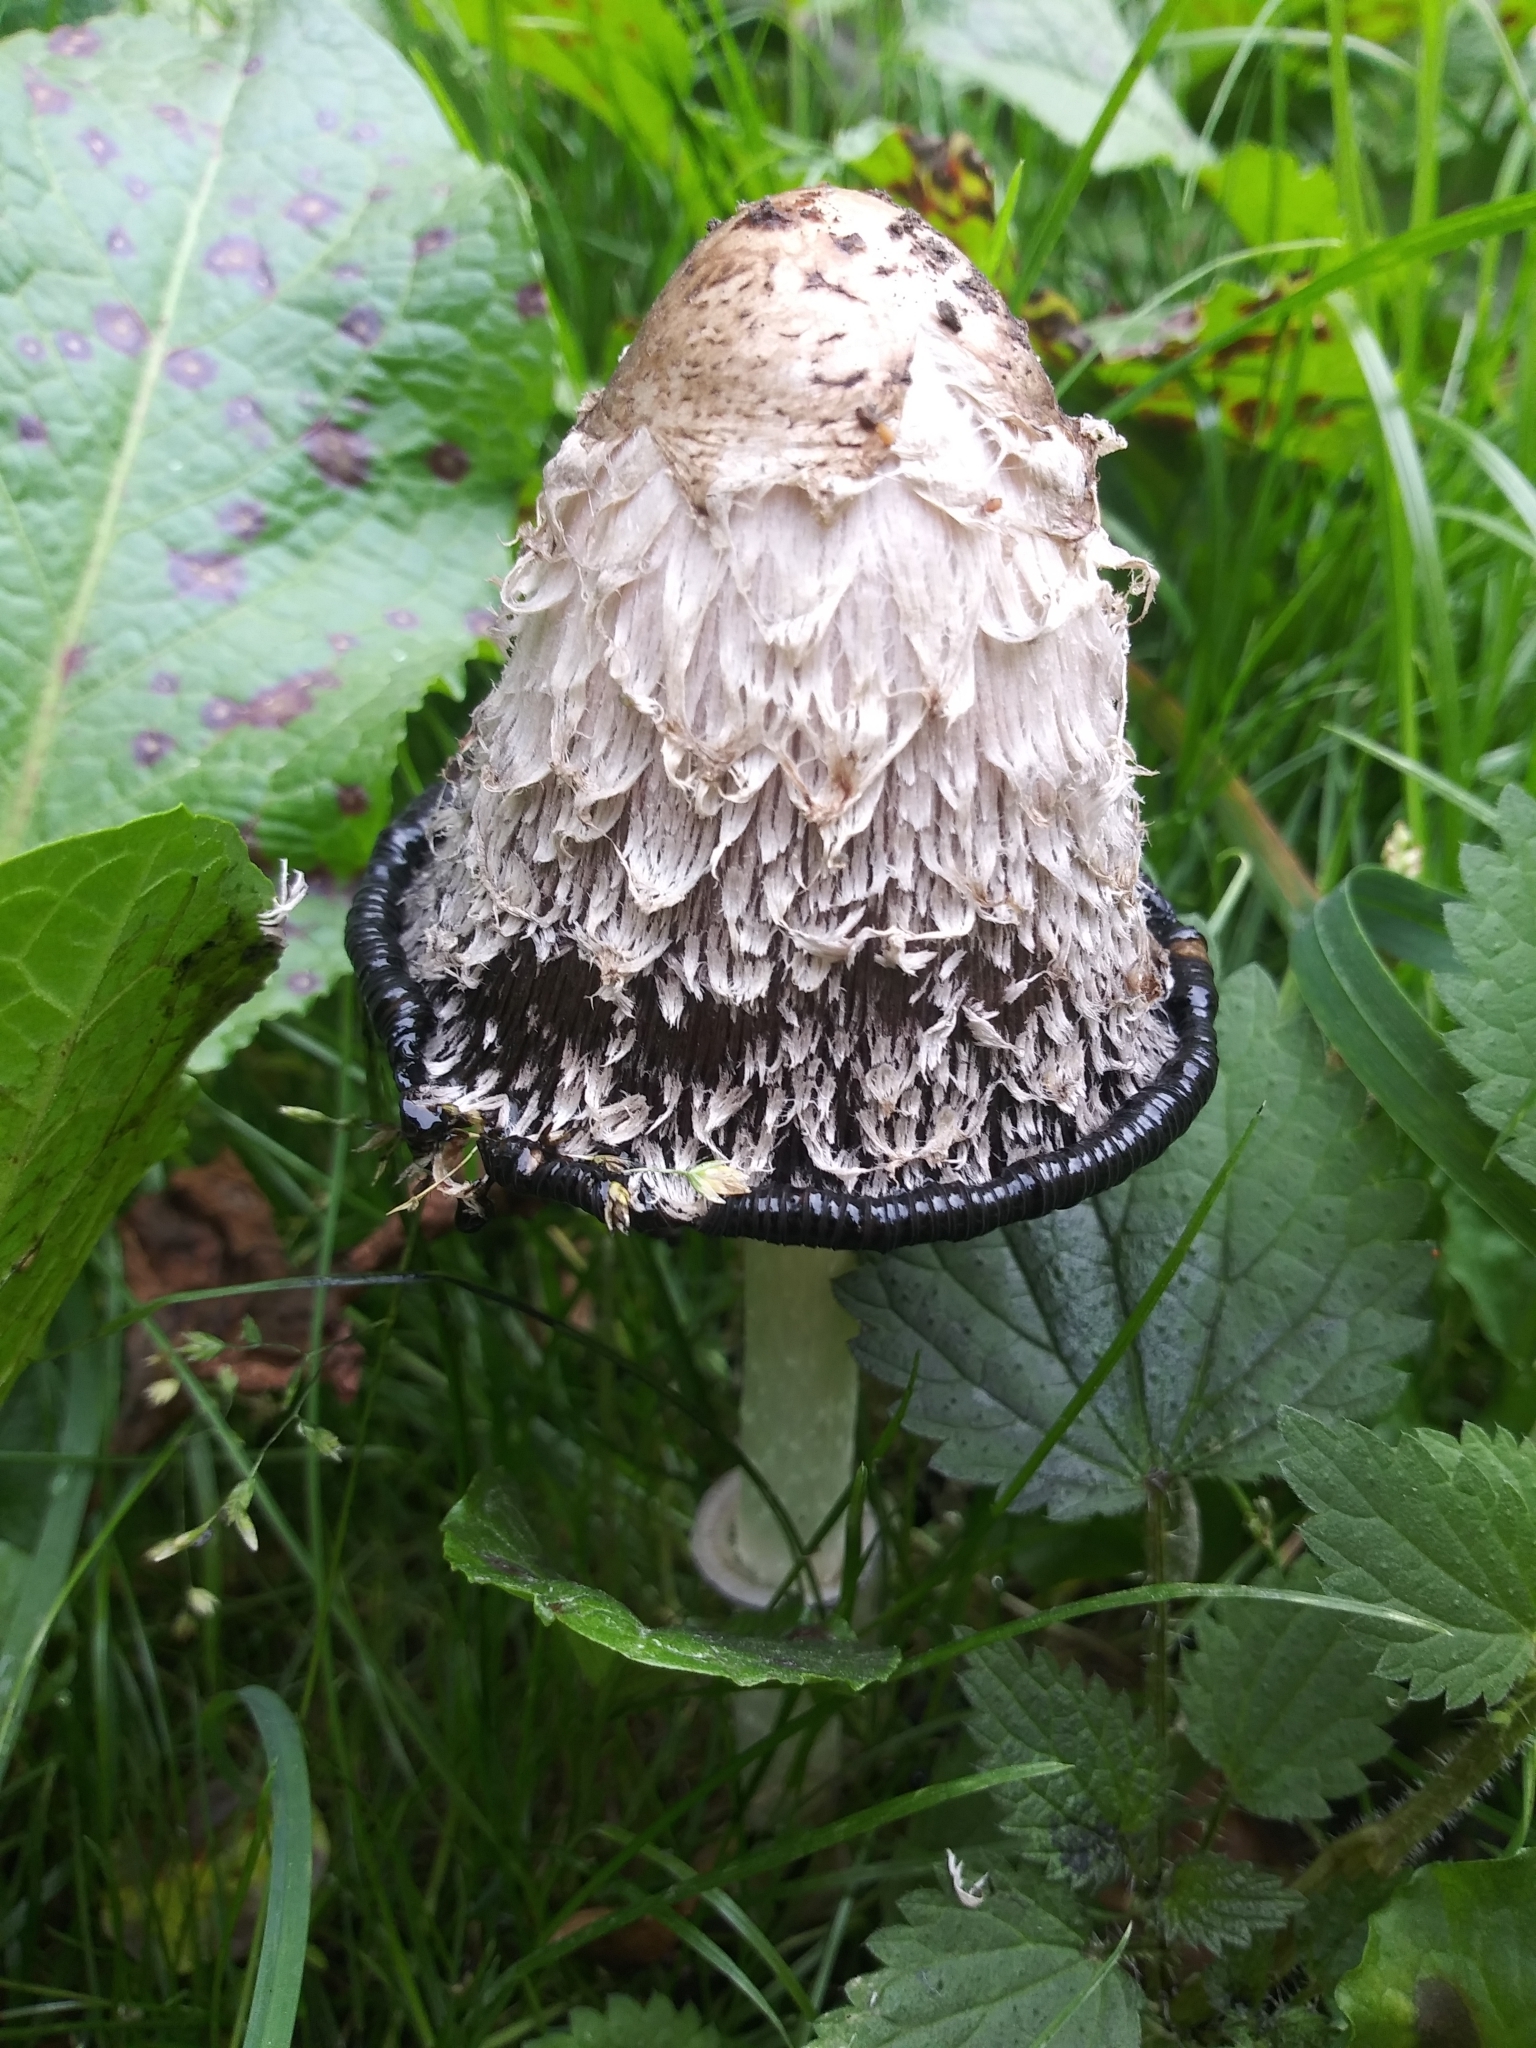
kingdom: Fungi
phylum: Basidiomycota
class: Agaricomycetes
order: Agaricales
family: Agaricaceae
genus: Coprinus
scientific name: Coprinus comatus
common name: Lawyer's wig
